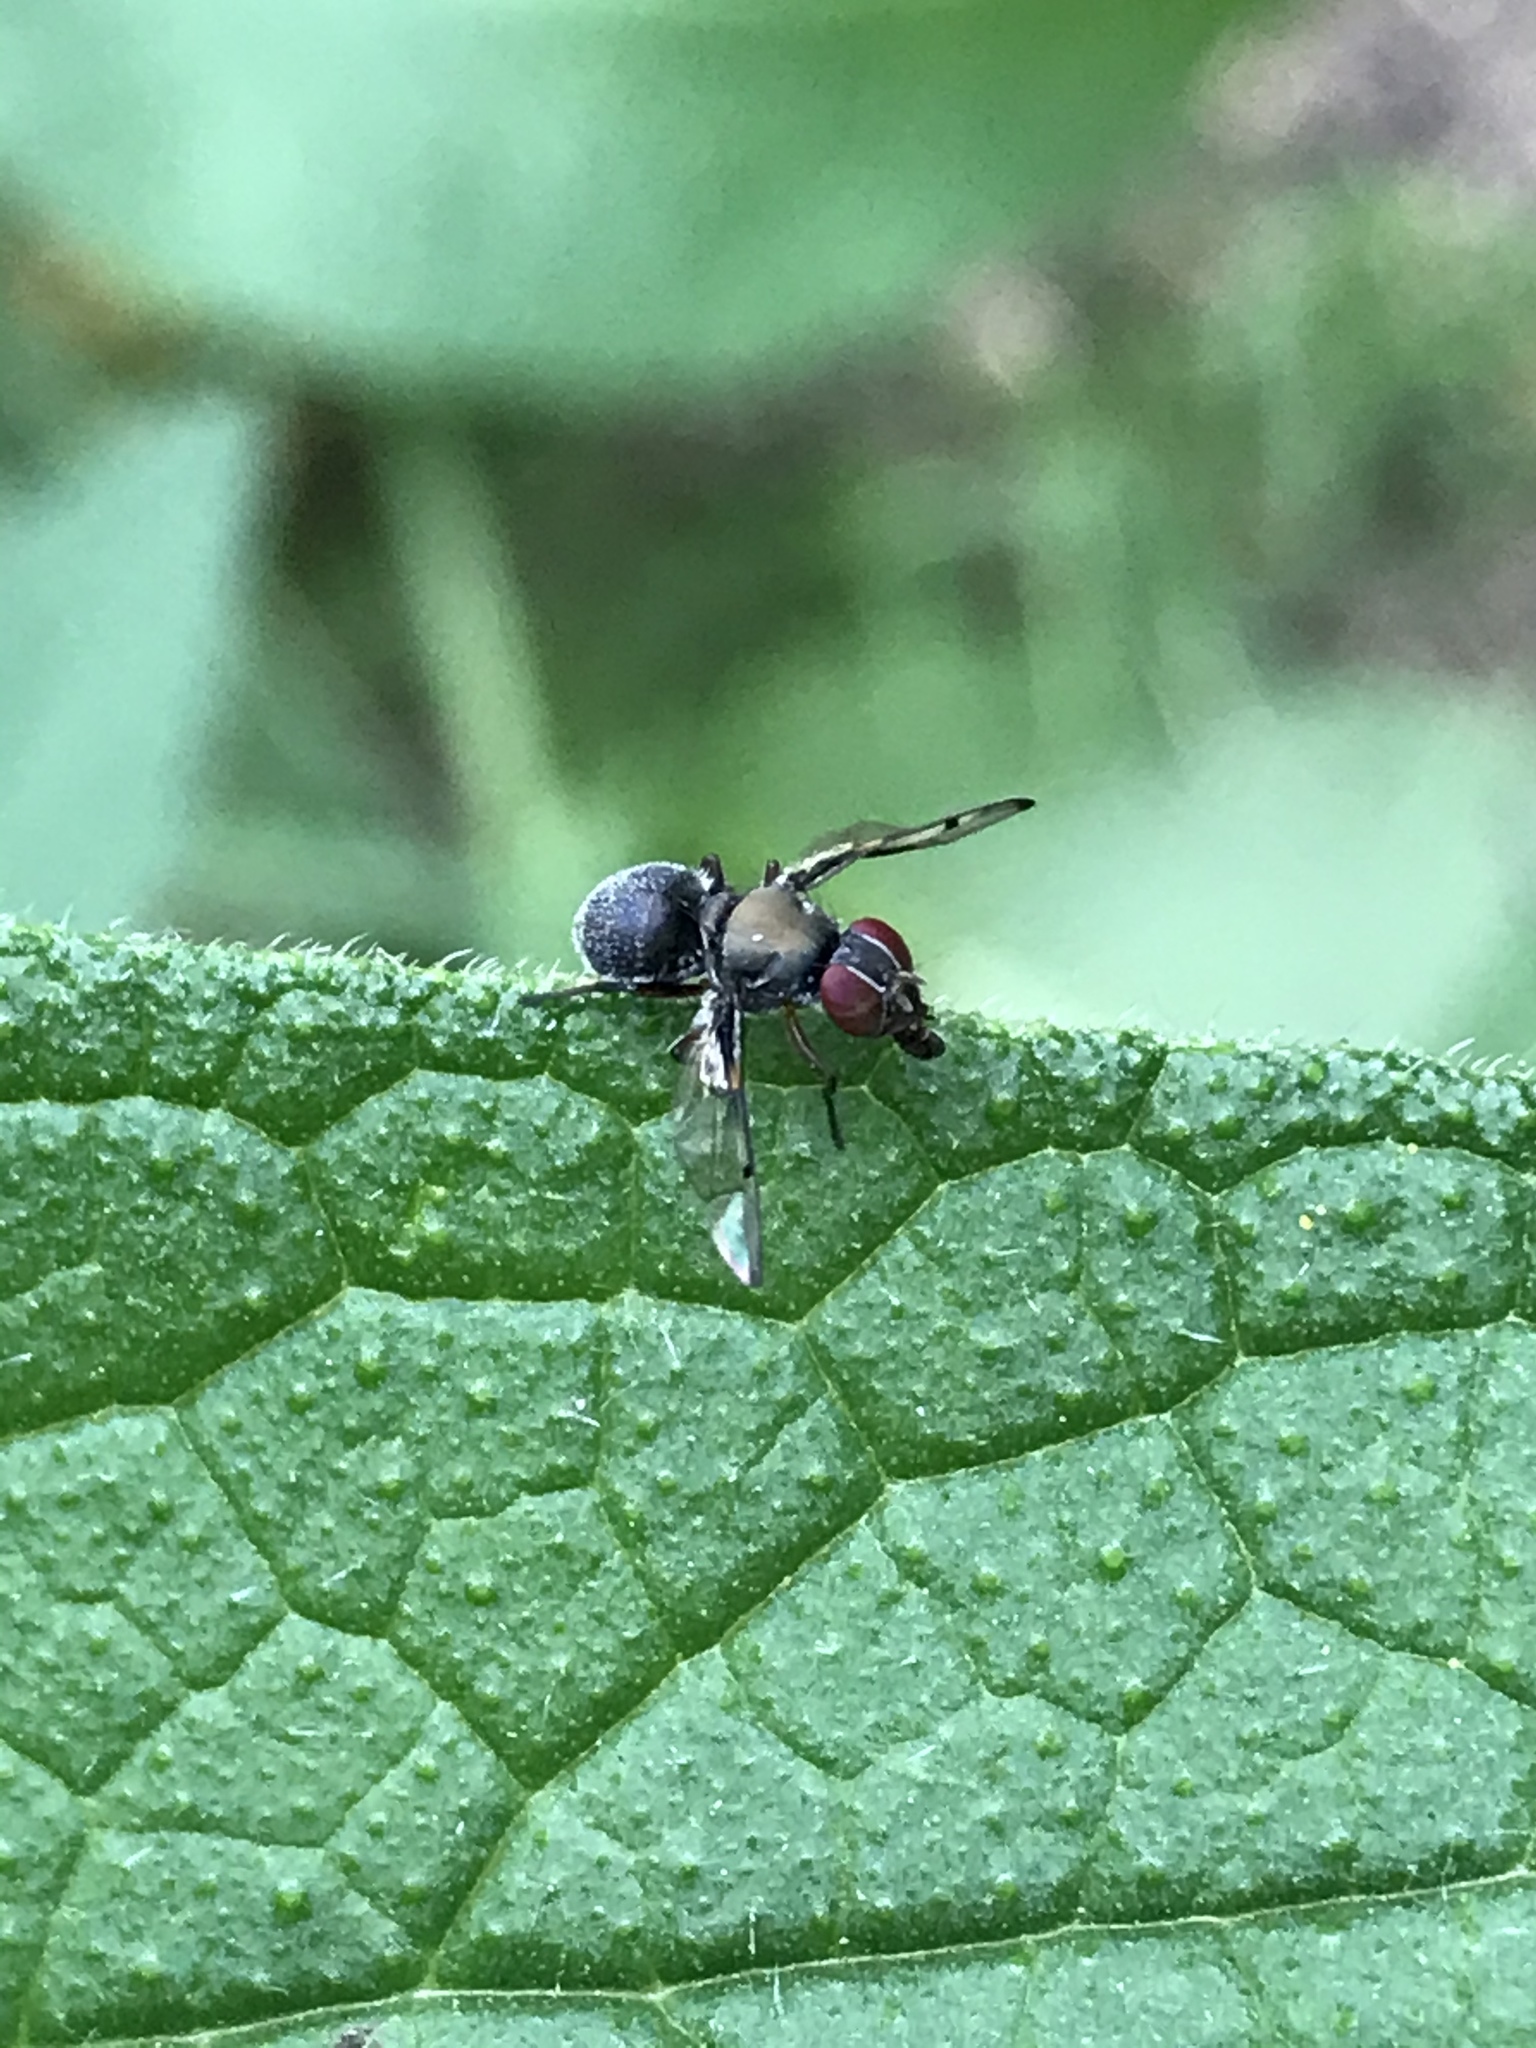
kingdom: Animalia
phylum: Arthropoda
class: Insecta
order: Diptera
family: Platystomatidae
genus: Pogonortalis
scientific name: Pogonortalis doclea
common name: Boatman fly
